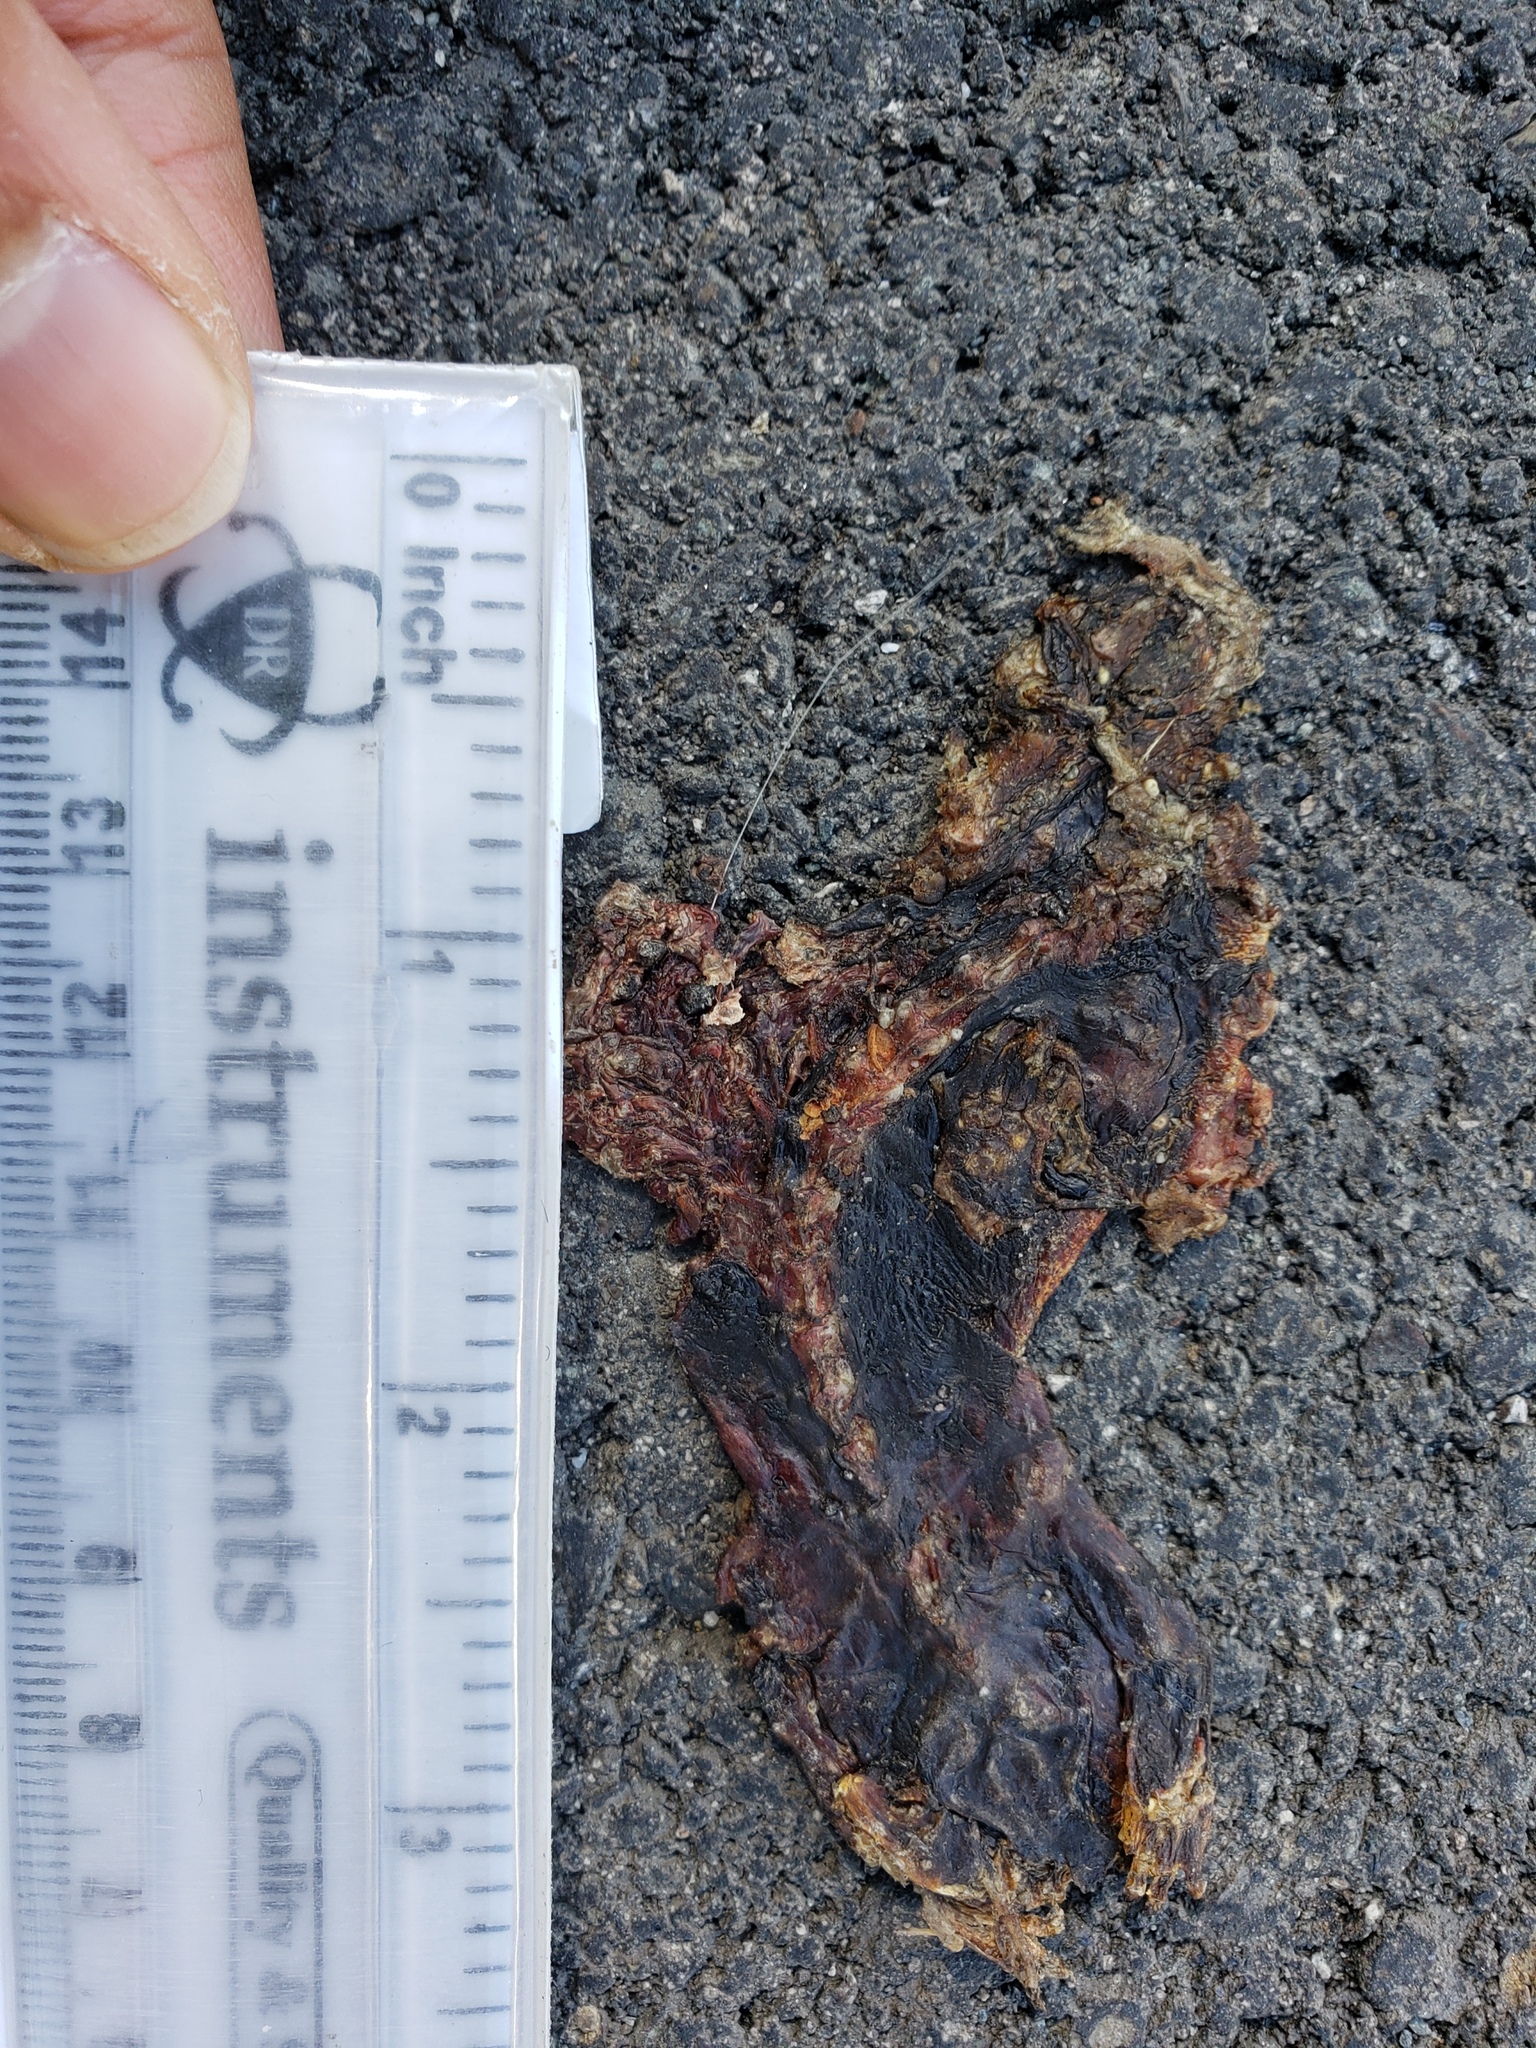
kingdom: Animalia
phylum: Chordata
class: Amphibia
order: Caudata
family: Salamandridae
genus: Taricha
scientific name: Taricha
